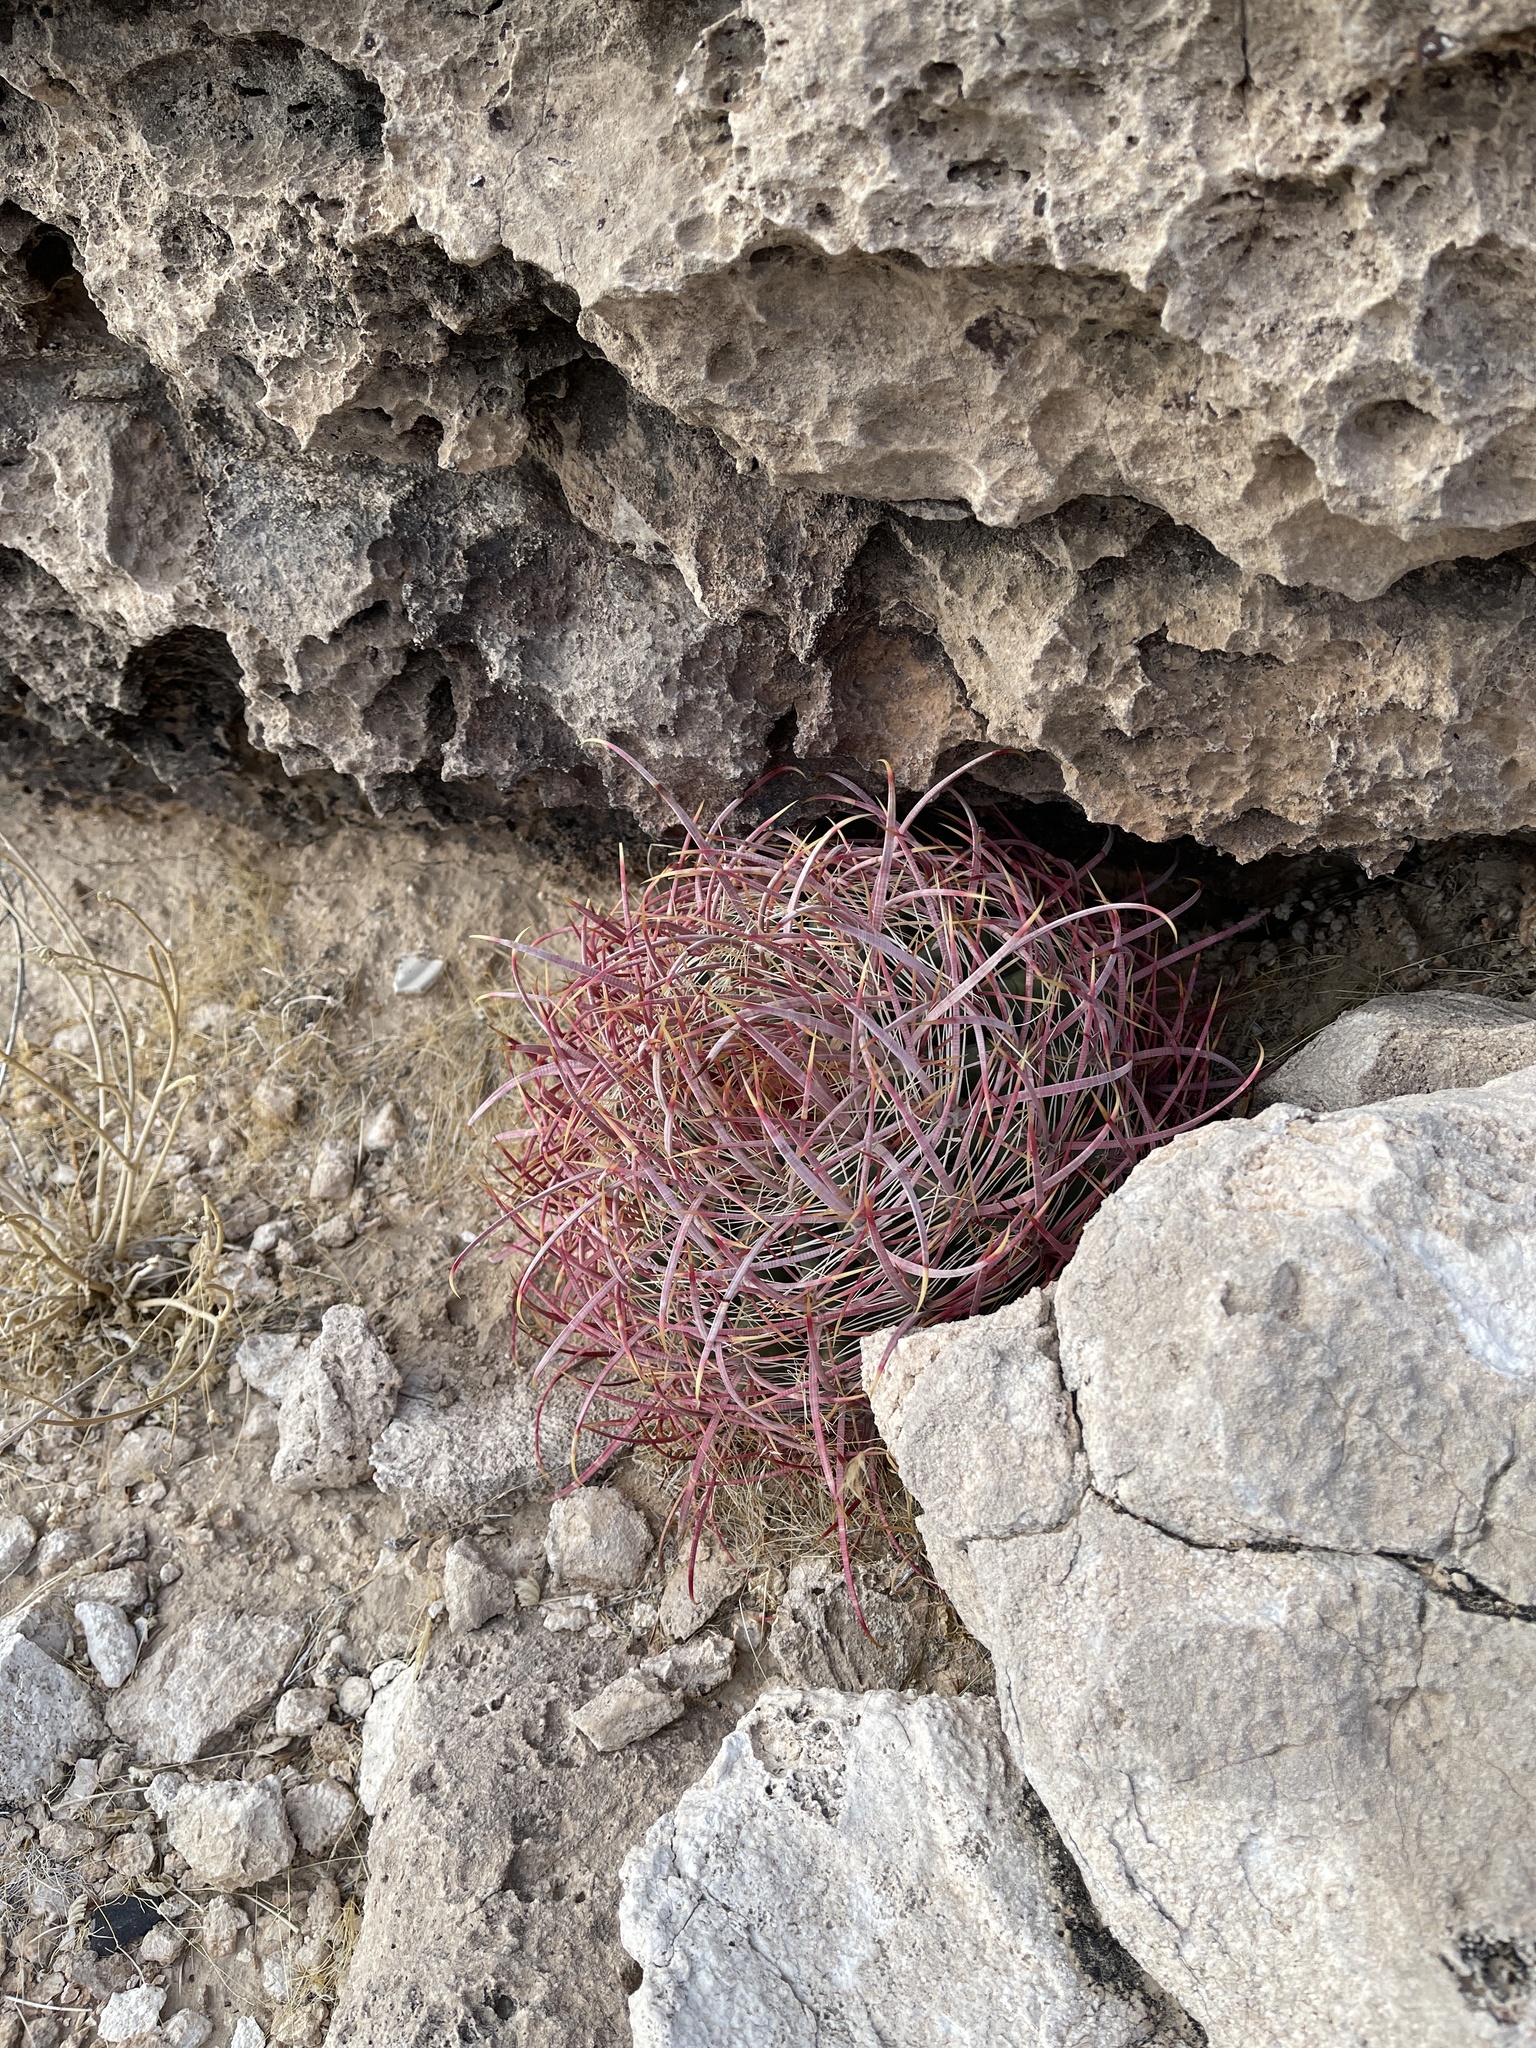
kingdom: Plantae
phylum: Tracheophyta
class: Magnoliopsida
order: Caryophyllales
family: Cactaceae
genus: Ferocactus
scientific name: Ferocactus cylindraceus
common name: California barrel cactus
